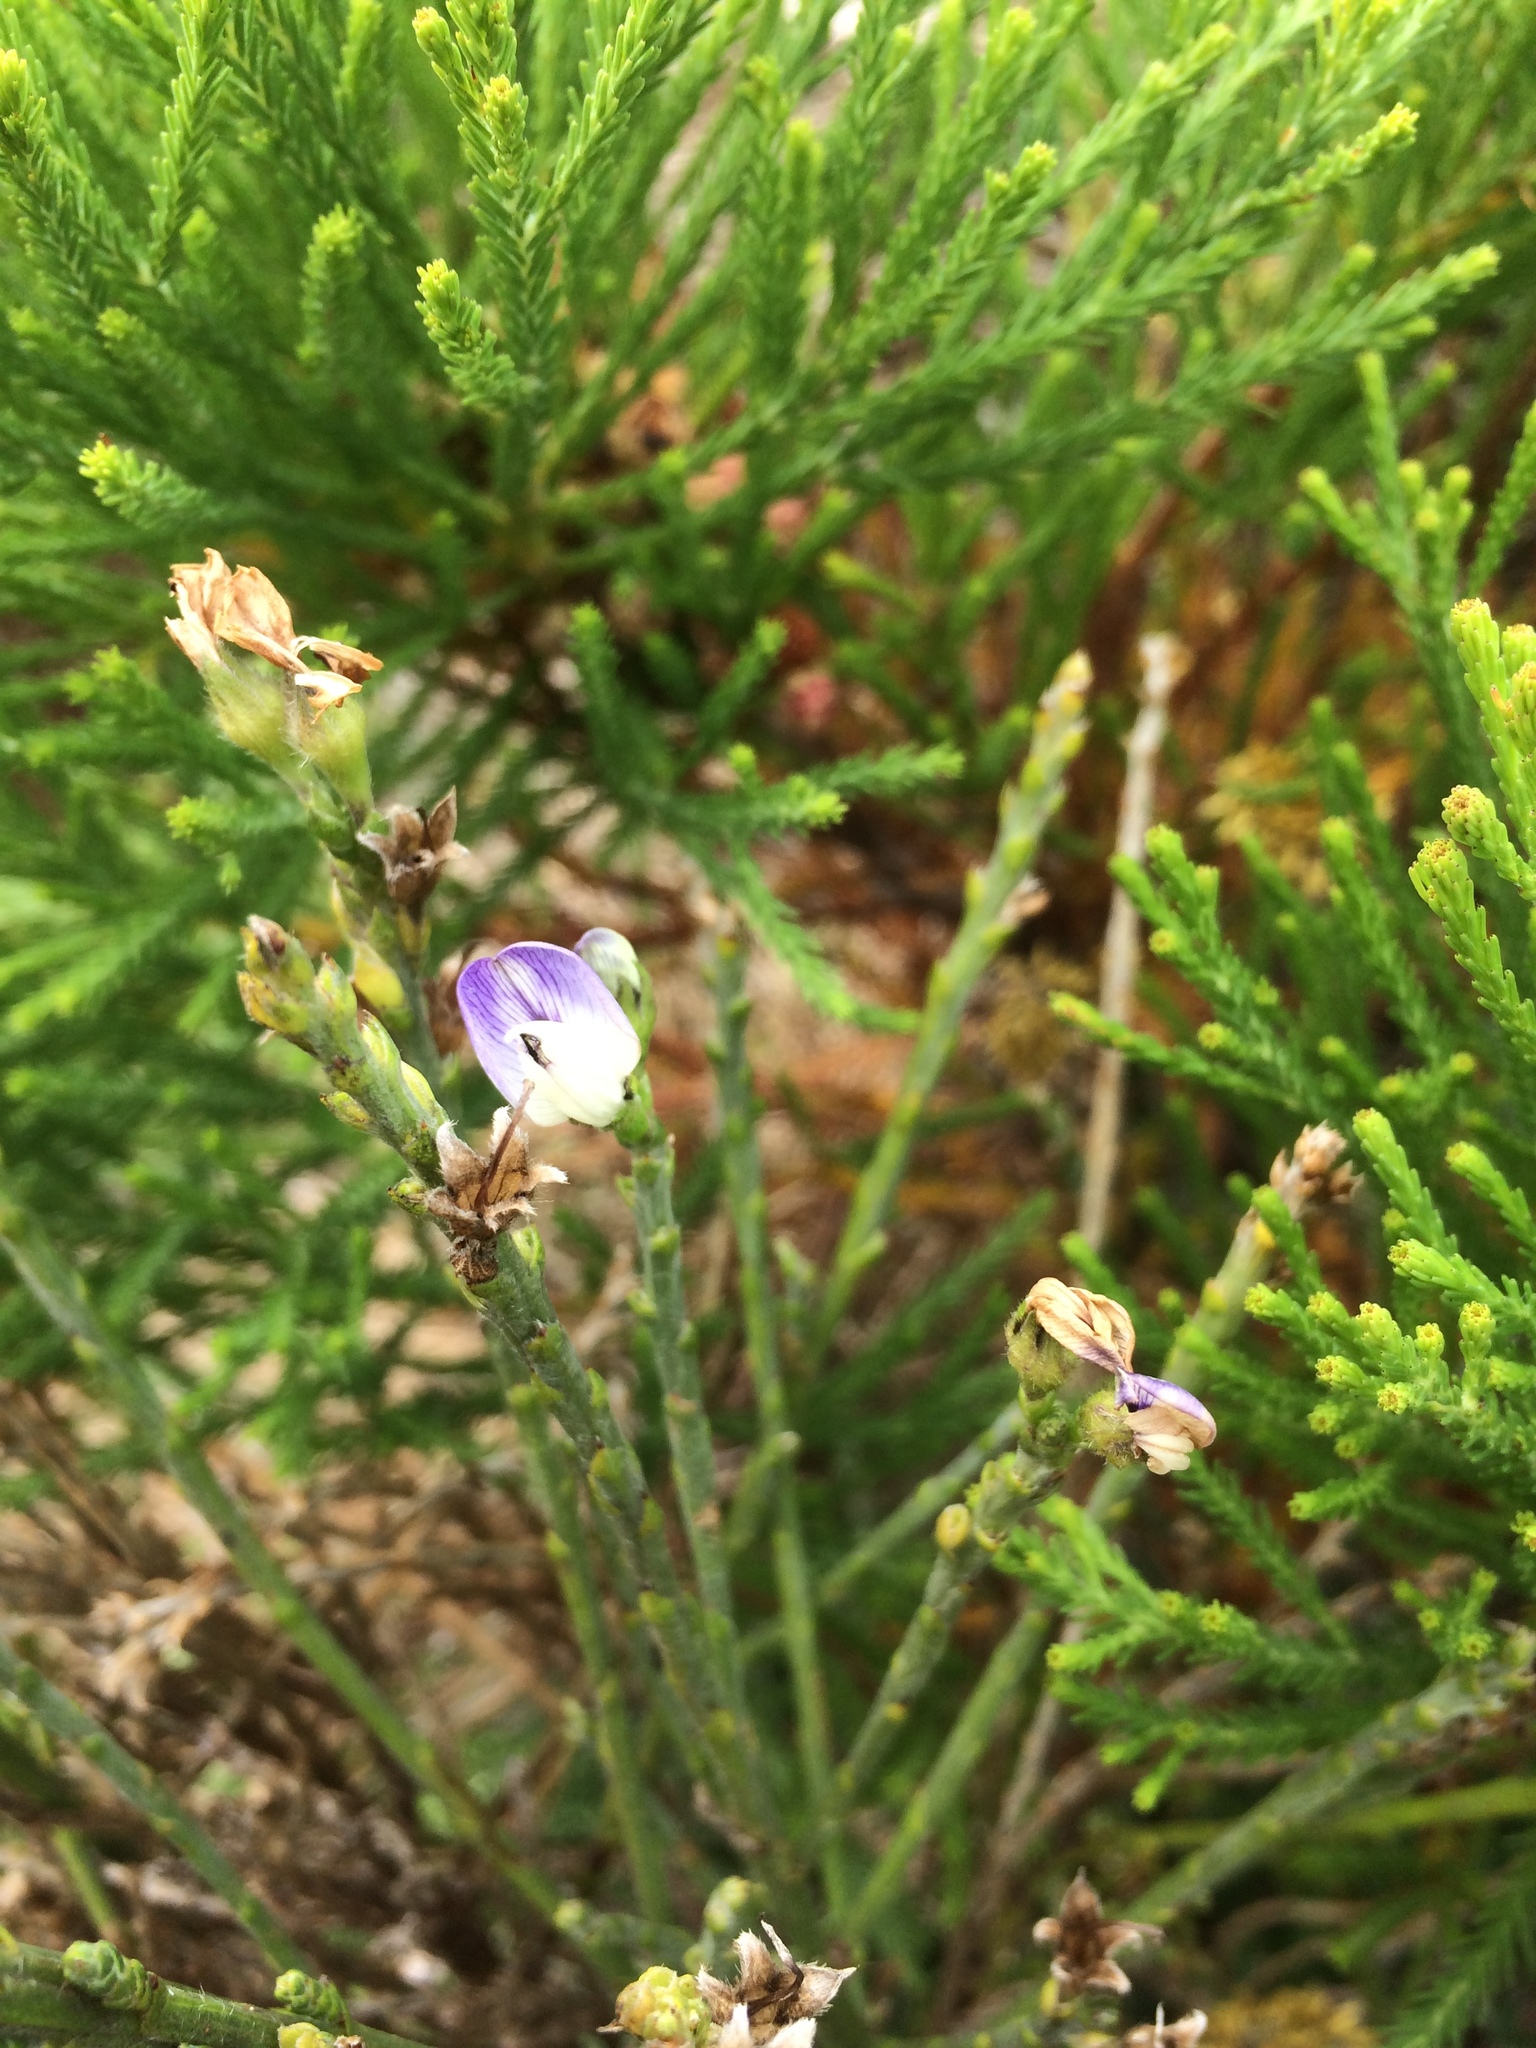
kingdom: Plantae
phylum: Tracheophyta
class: Magnoliopsida
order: Fabales
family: Fabaceae
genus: Psoralea
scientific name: Psoralea congesta
